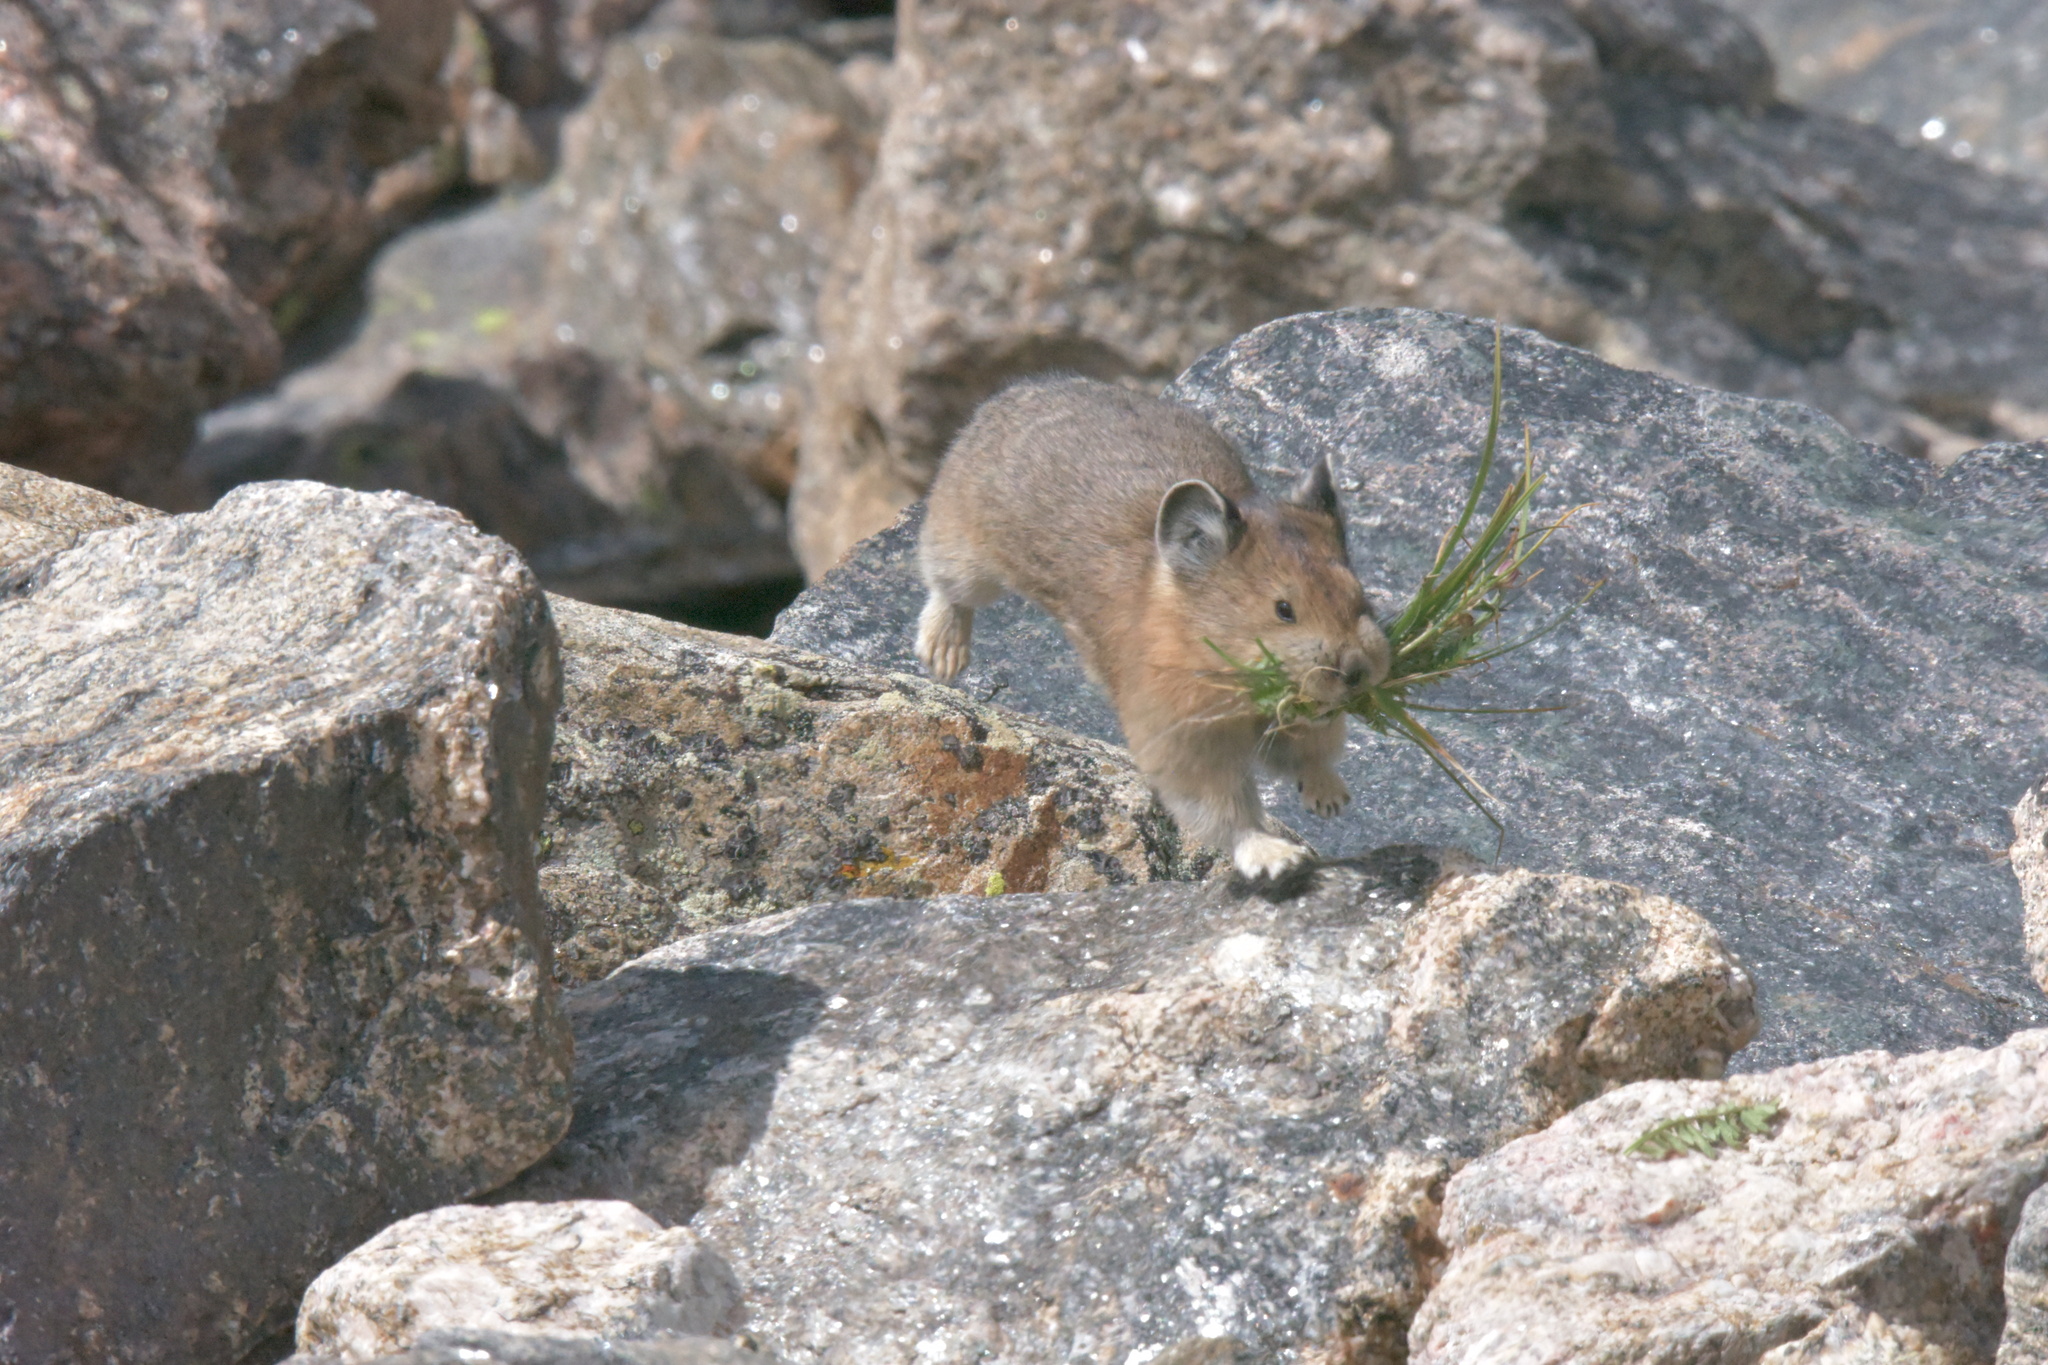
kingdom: Animalia
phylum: Chordata
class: Mammalia
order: Lagomorpha
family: Ochotonidae
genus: Ochotona
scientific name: Ochotona princeps
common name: American pika
